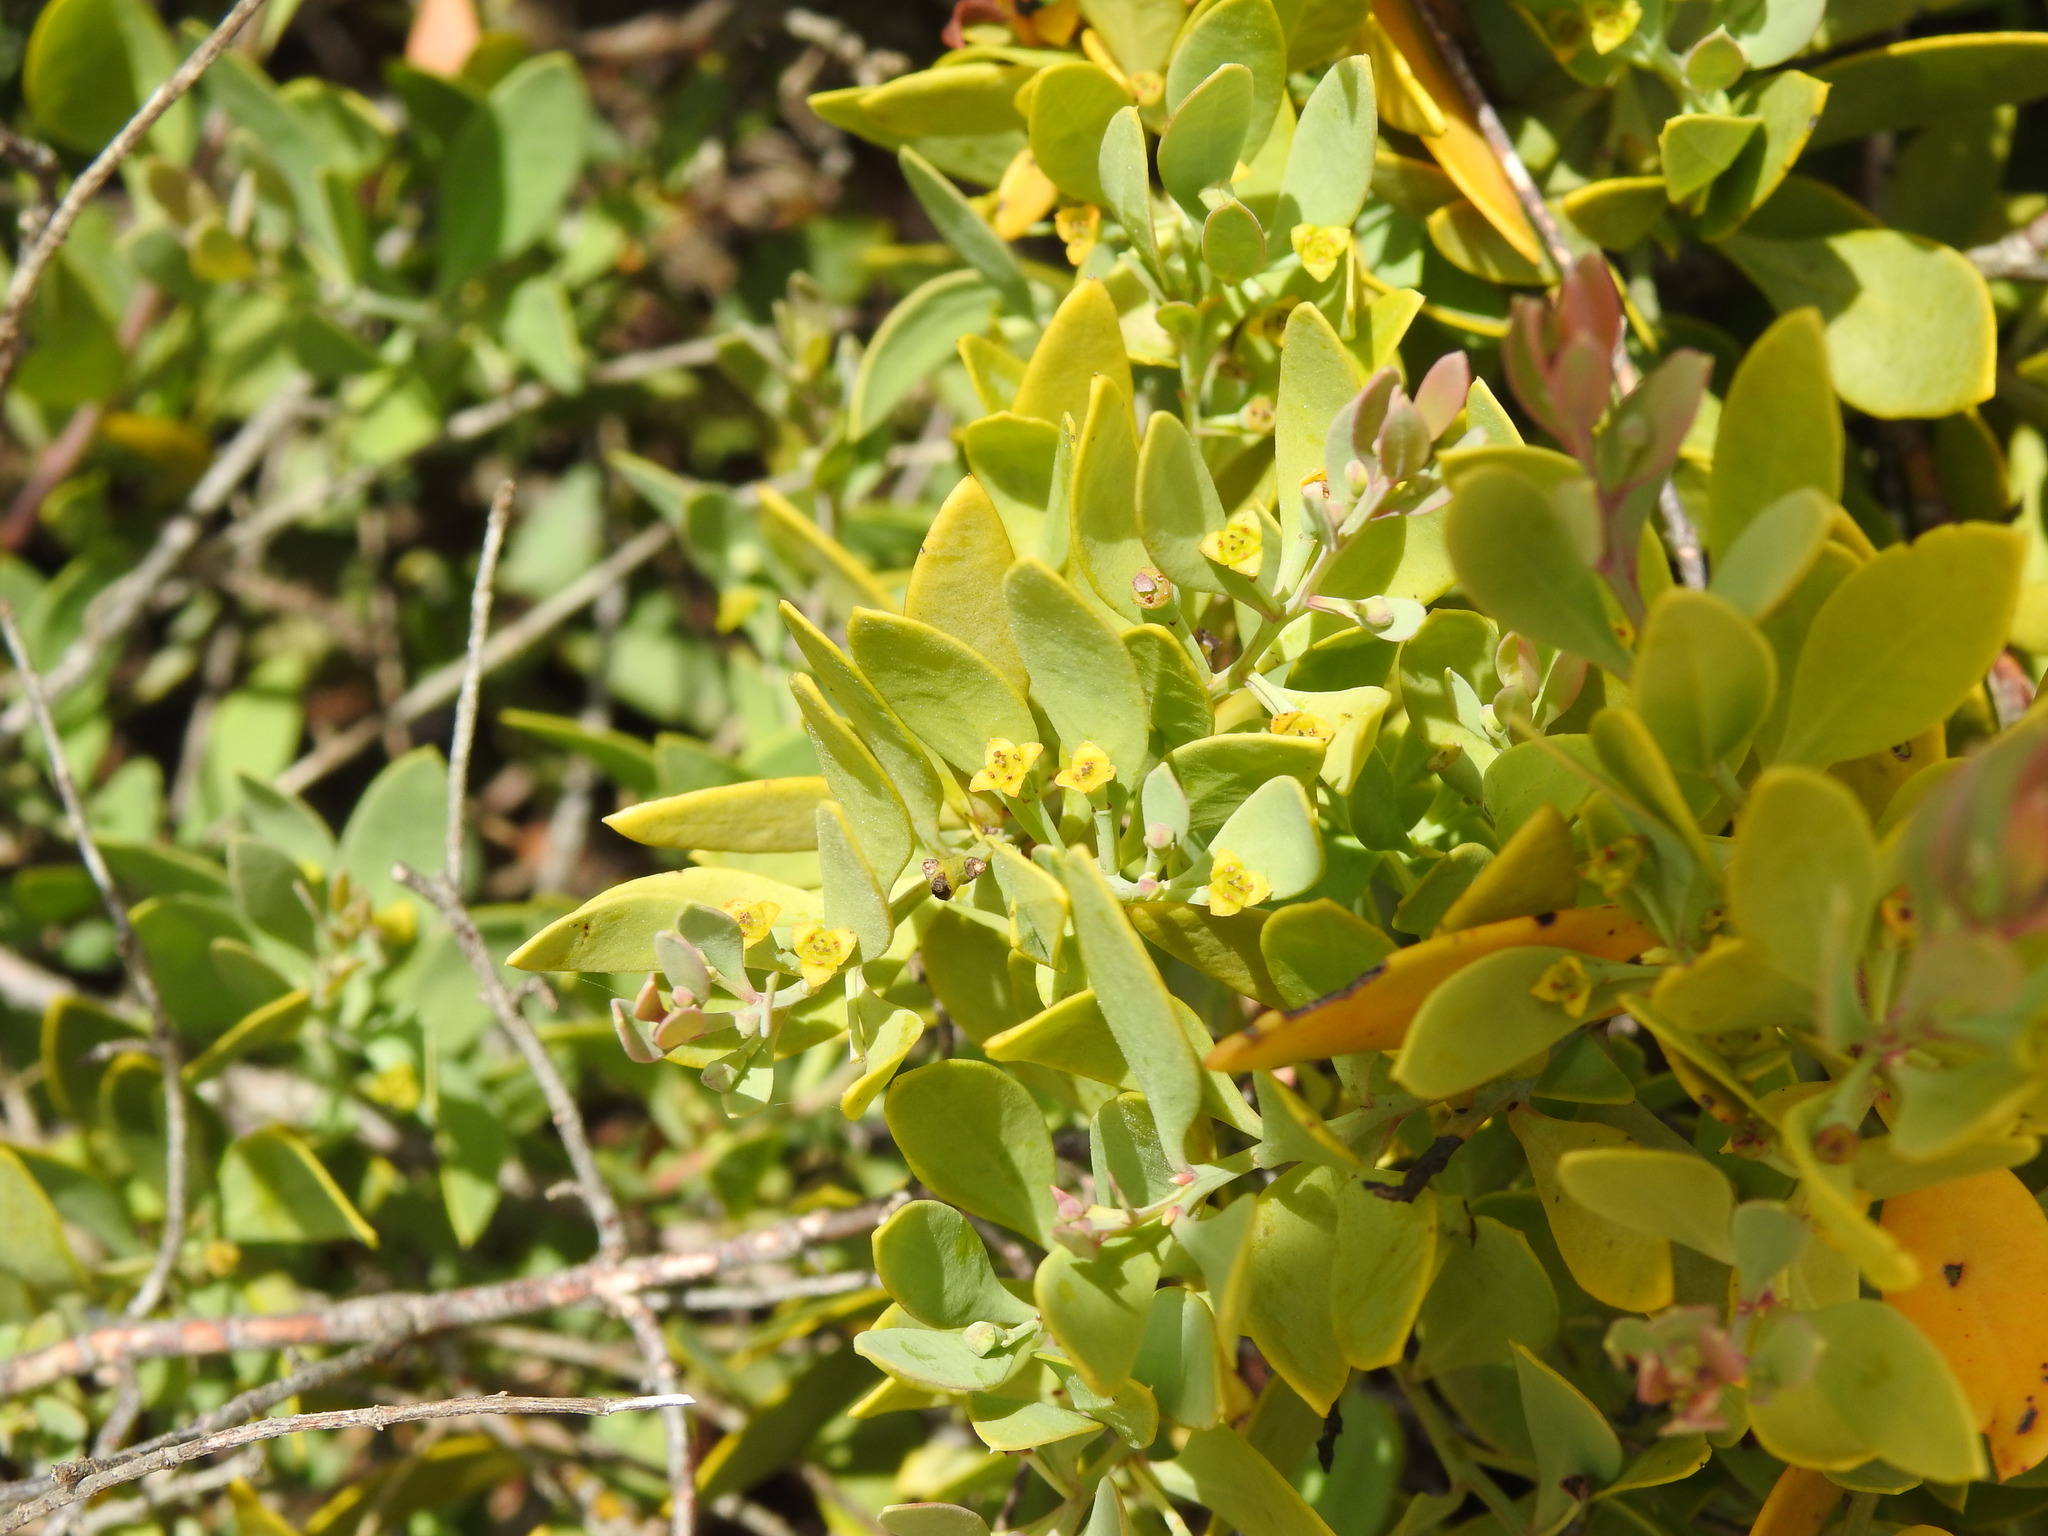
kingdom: Plantae
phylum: Tracheophyta
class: Magnoliopsida
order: Santalales
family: Santalaceae
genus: Osyris
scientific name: Osyris lanceolata
